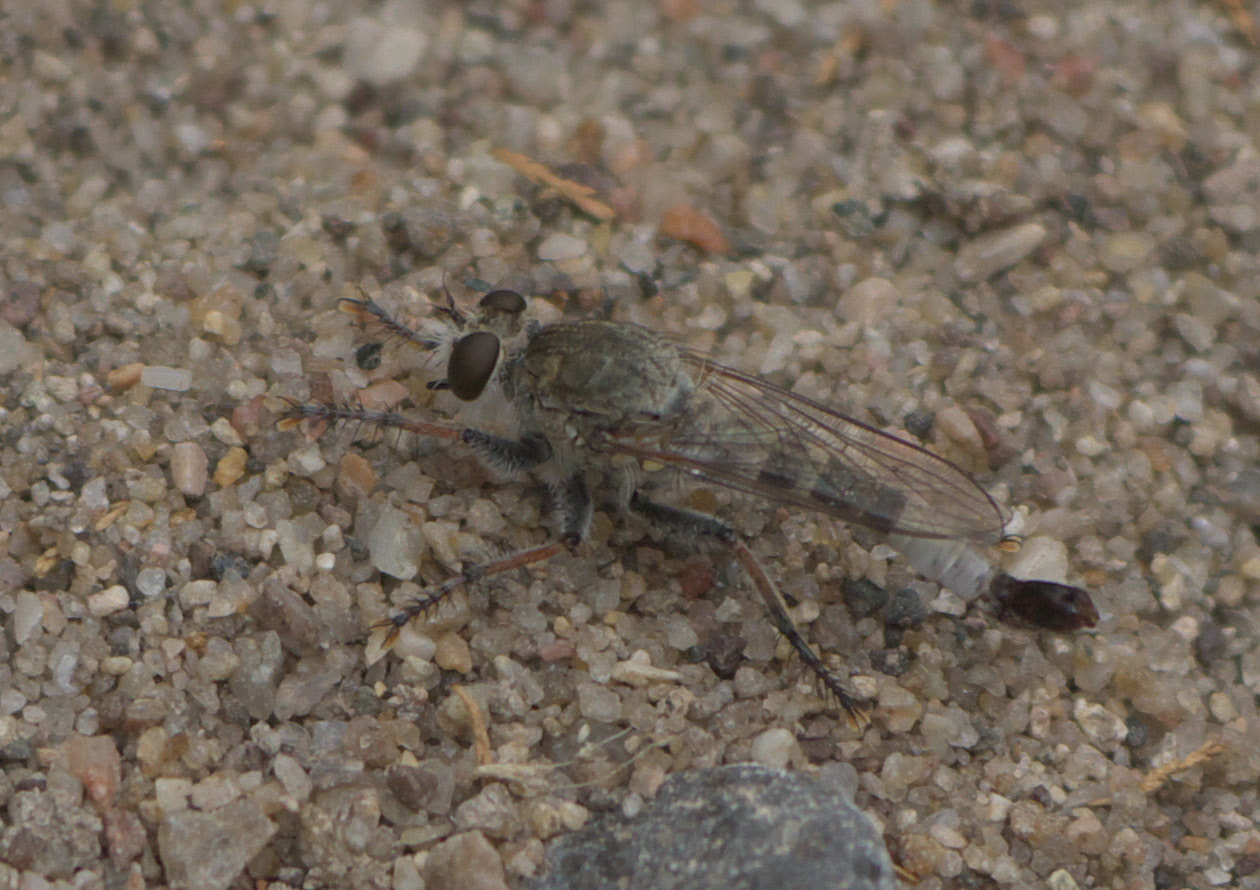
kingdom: Animalia
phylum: Arthropoda
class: Insecta
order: Diptera
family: Asilidae
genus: Efferia
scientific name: Efferia albibarbis
